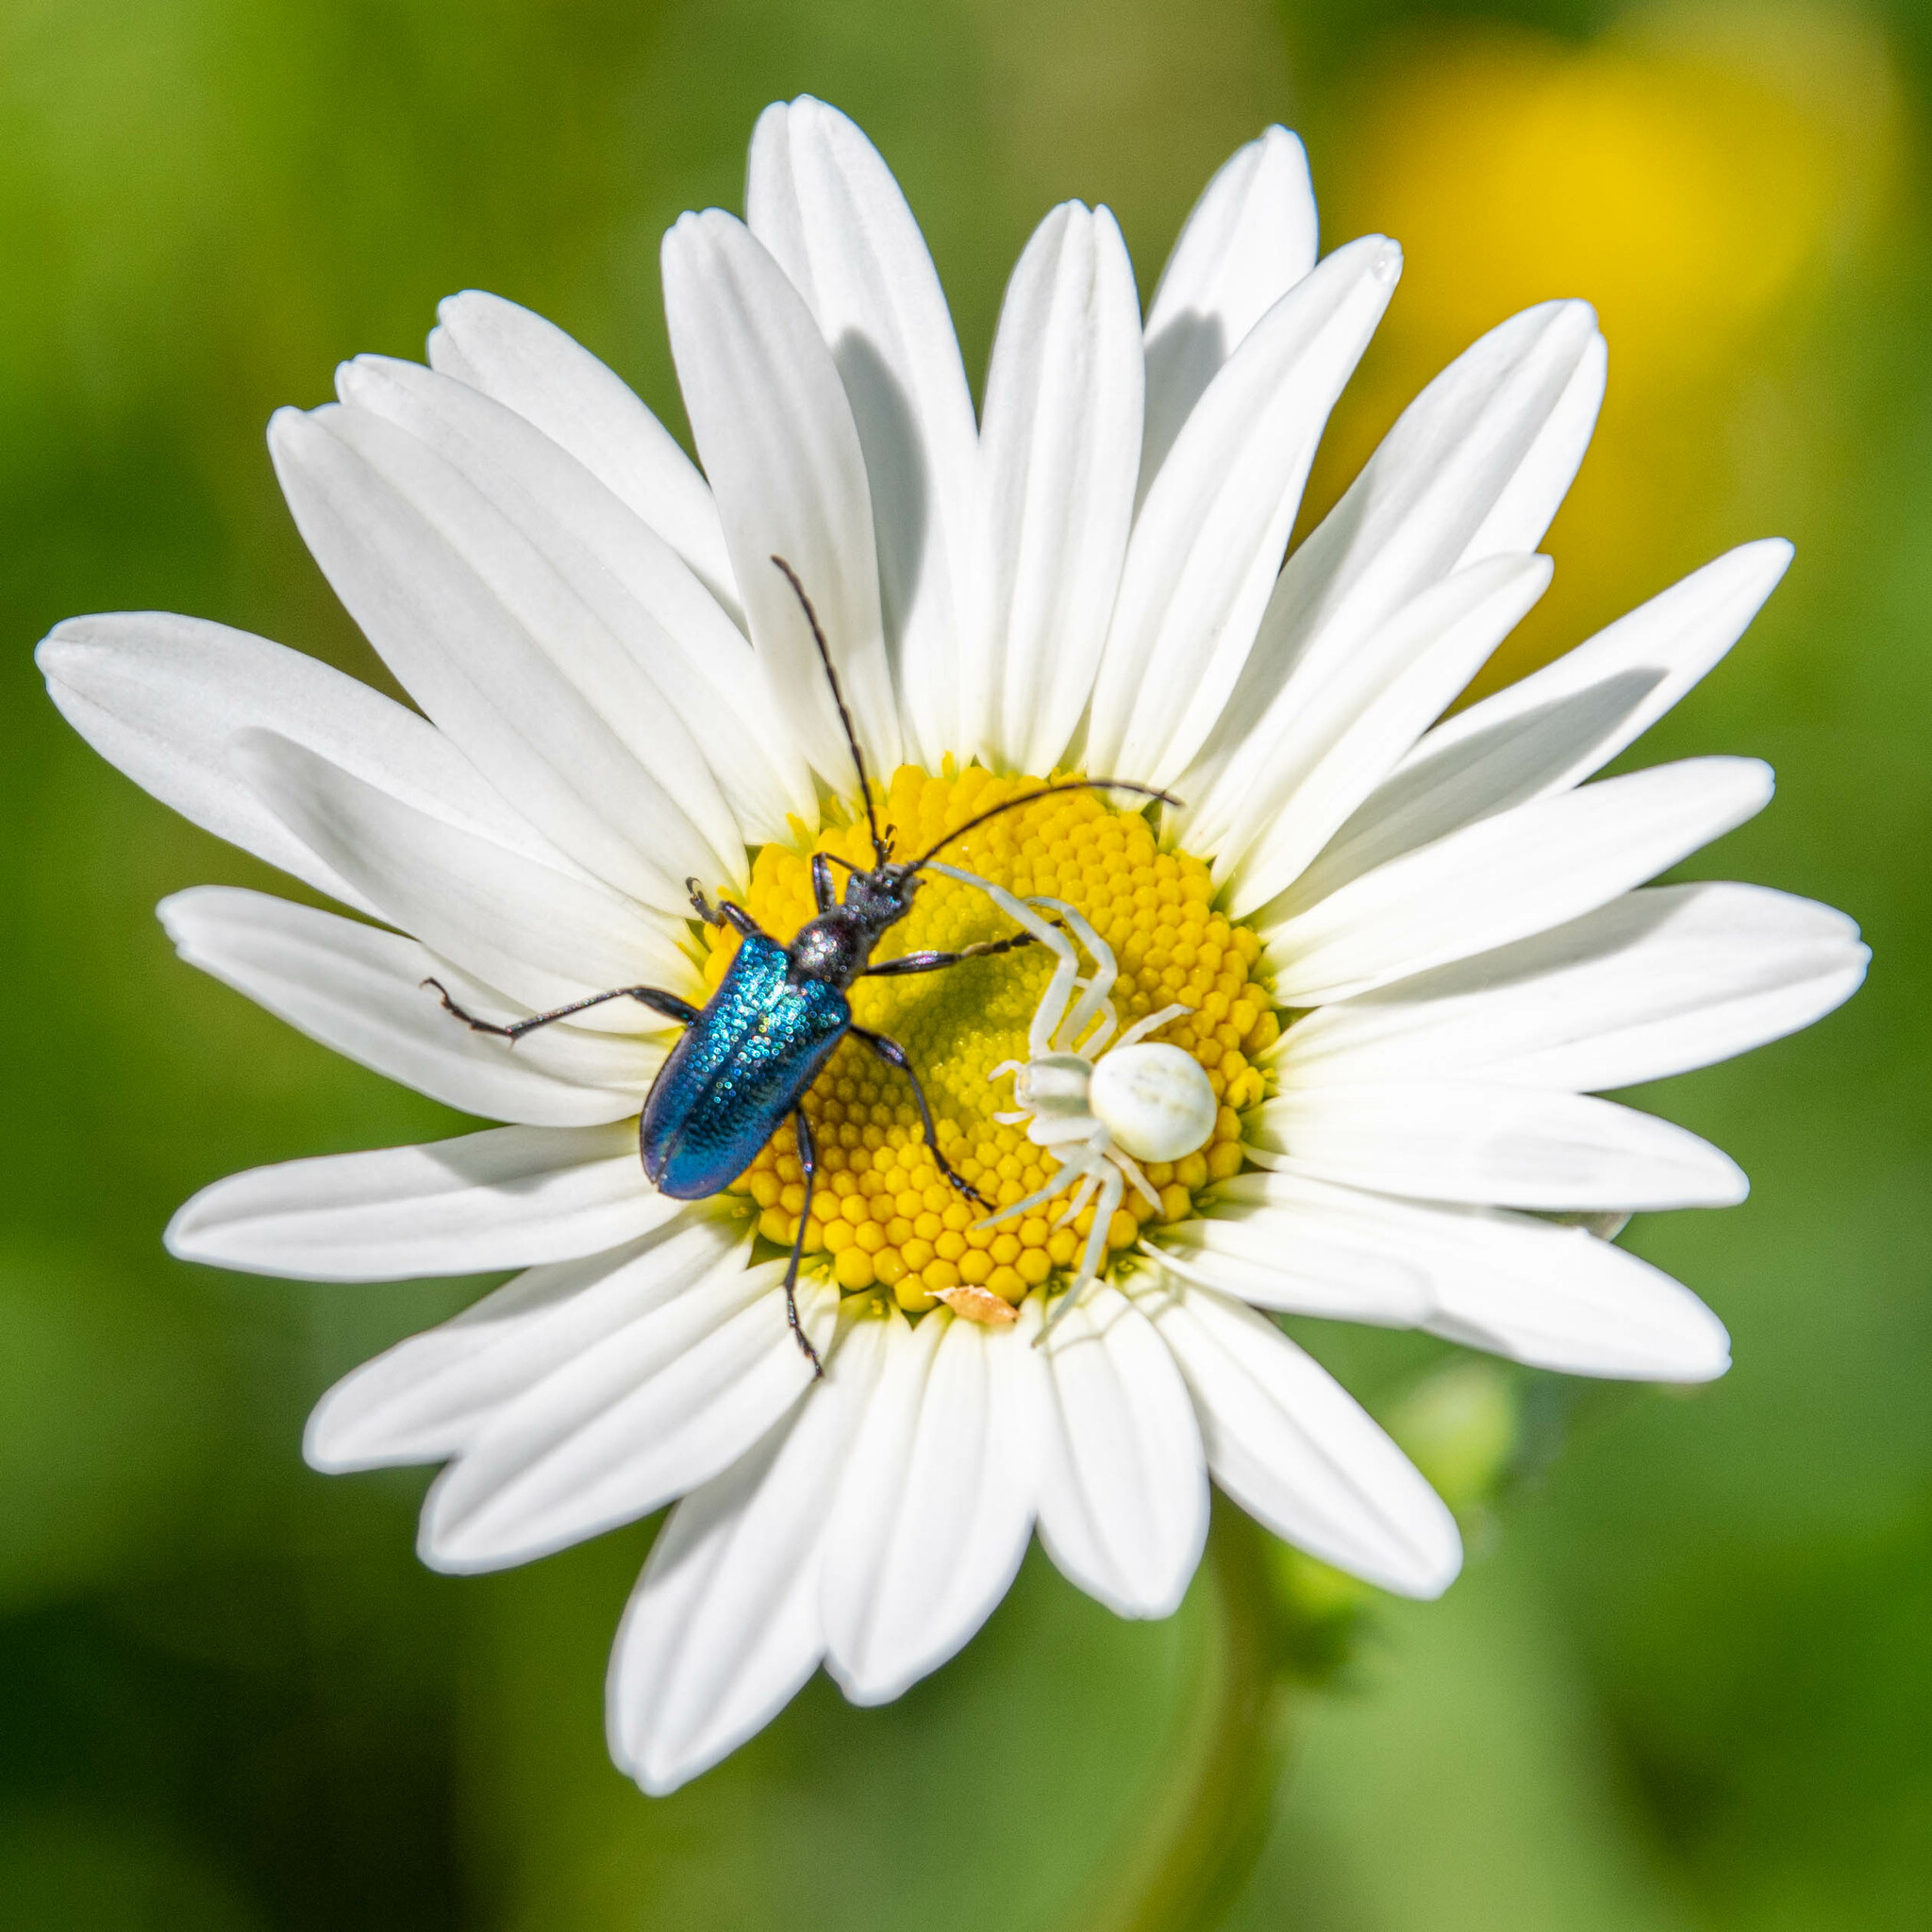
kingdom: Animalia
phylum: Arthropoda
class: Insecta
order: Coleoptera
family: Cerambycidae
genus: Gaurotes
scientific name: Gaurotes virginea
